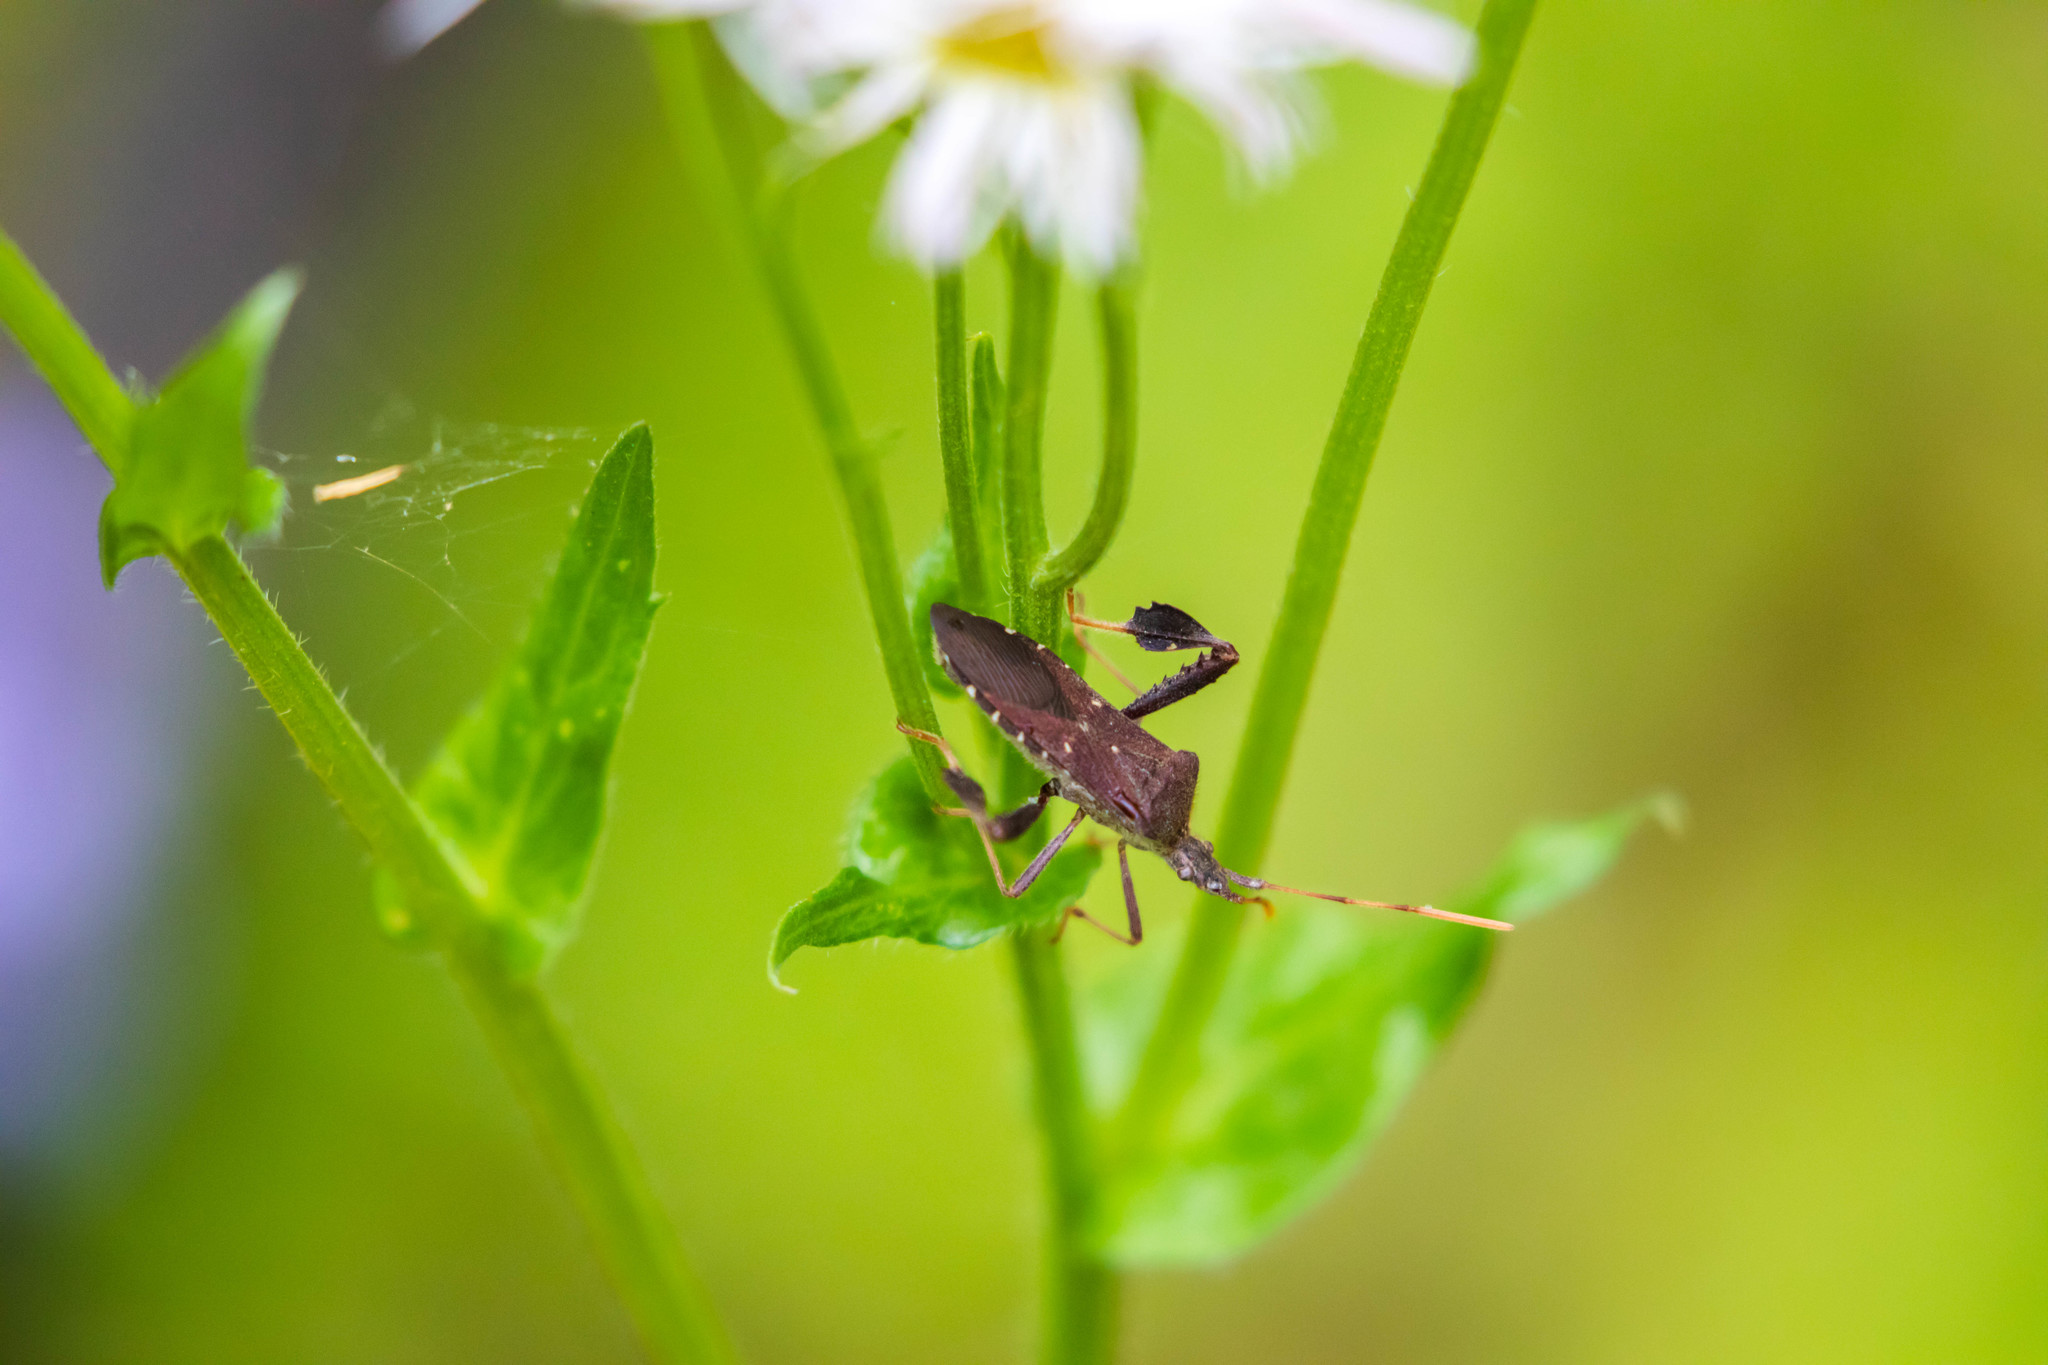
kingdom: Animalia
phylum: Arthropoda
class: Insecta
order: Hemiptera
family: Coreidae
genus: Leptoglossus
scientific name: Leptoglossus oppositus
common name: Northern leaf-footed bug
